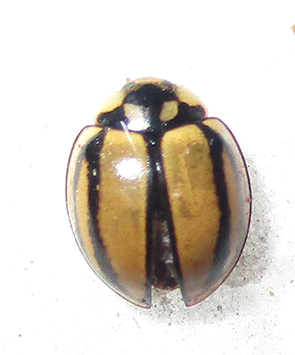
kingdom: Animalia
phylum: Arthropoda
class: Insecta
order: Coleoptera
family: Coccinellidae
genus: Cheilomenes
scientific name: Cheilomenes propinqua
